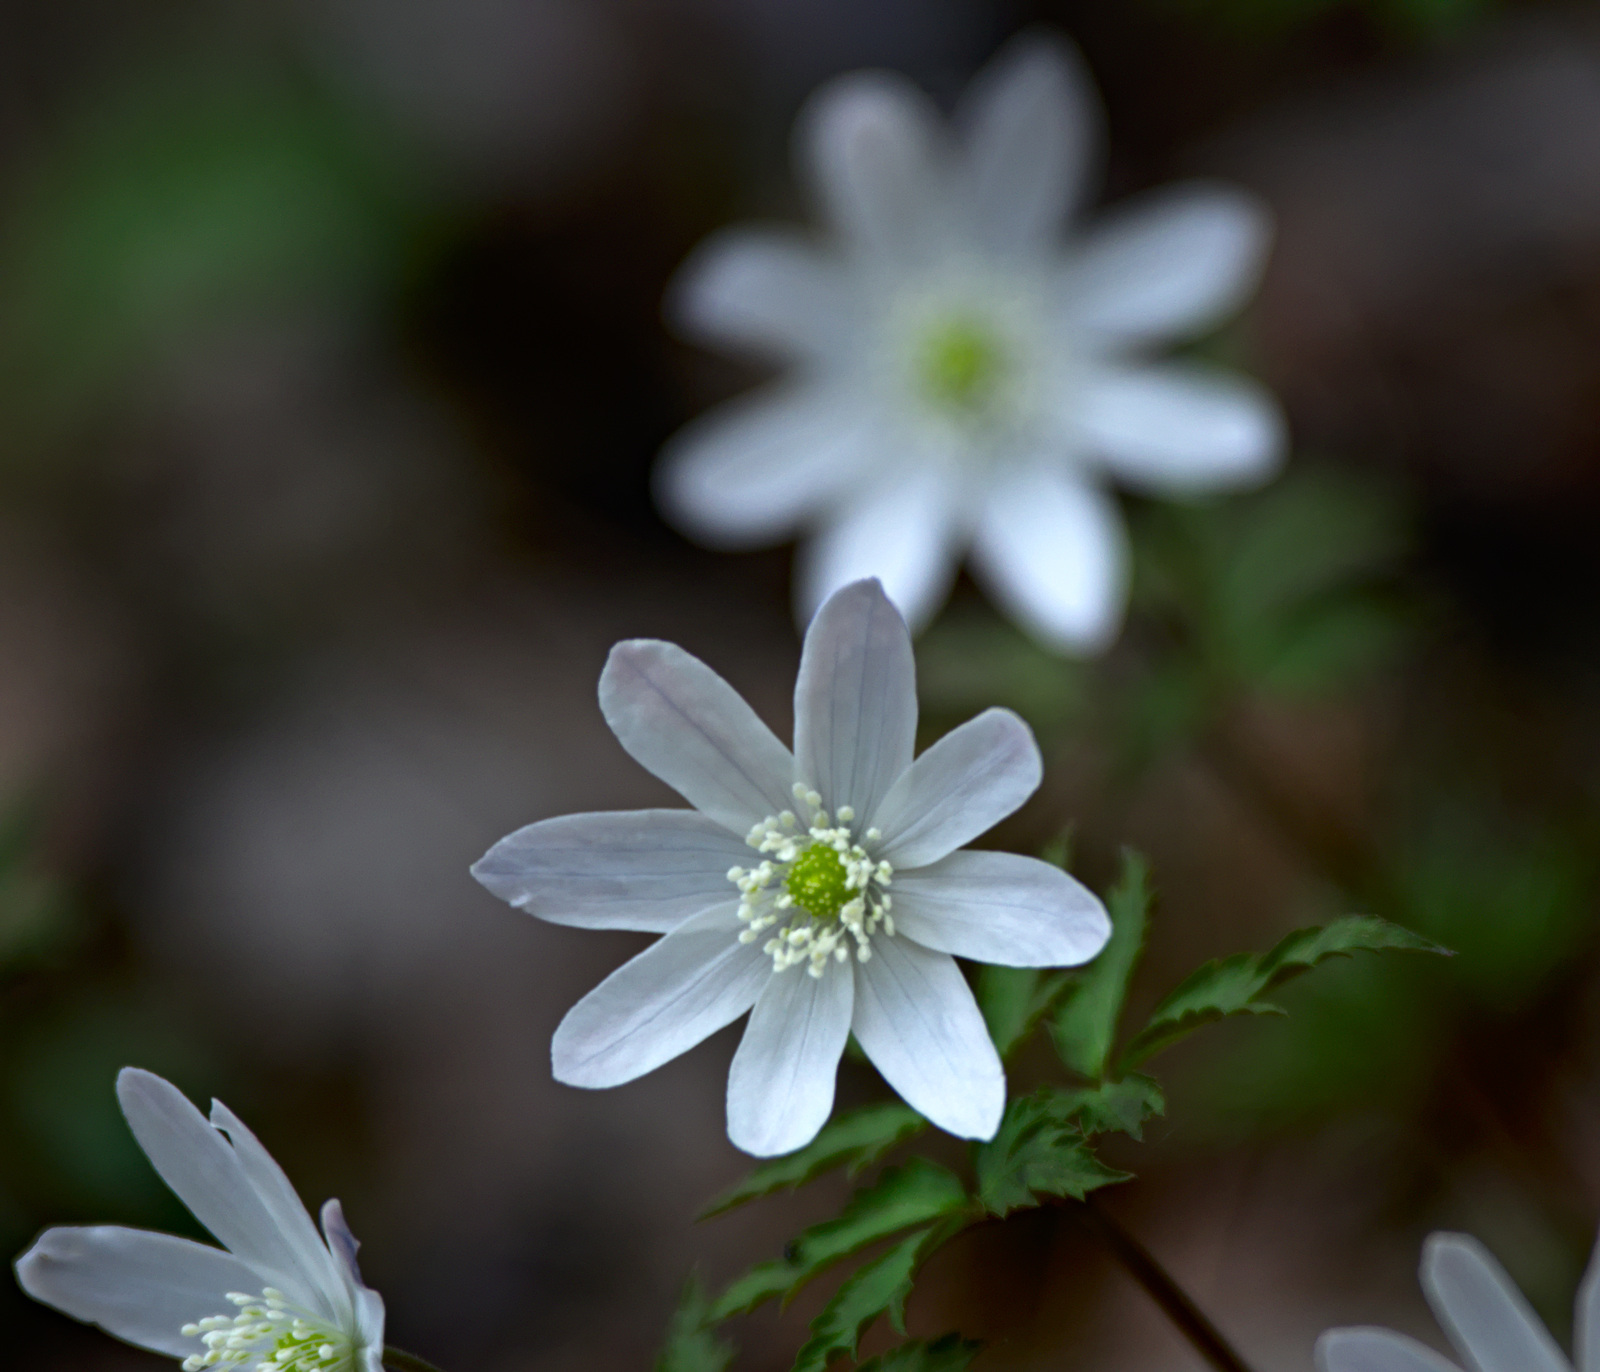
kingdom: Plantae
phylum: Tracheophyta
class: Magnoliopsida
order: Ranunculales
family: Ranunculaceae
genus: Anemone
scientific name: Anemone altaica
